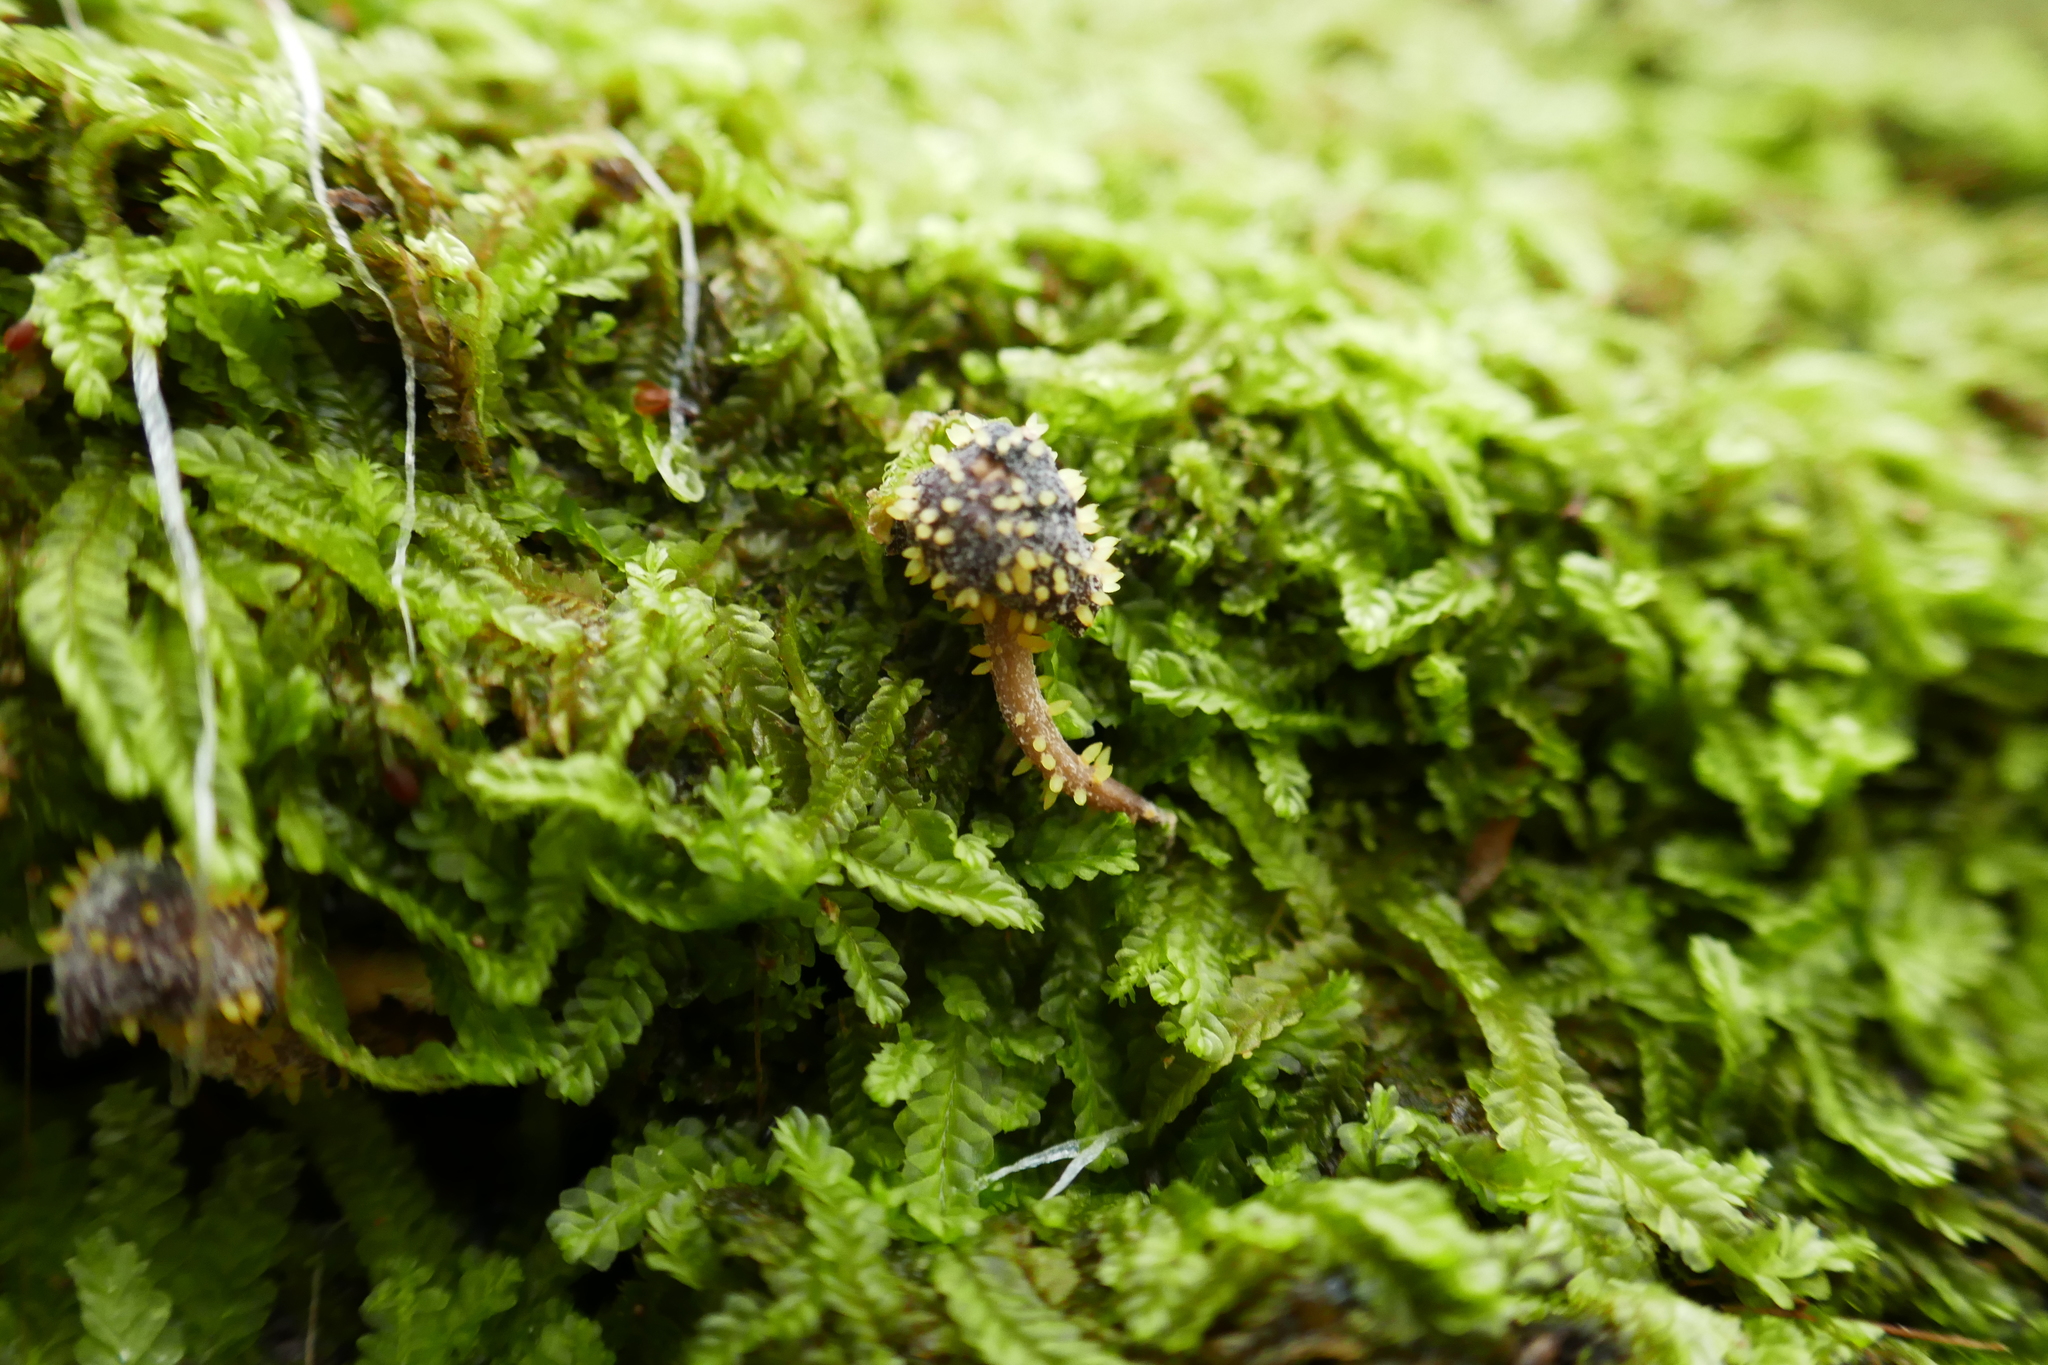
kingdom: Fungi
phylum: Ascomycota
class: Sordariomycetes
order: Hypocreales
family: Clavicipitaceae
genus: Neobarya
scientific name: Neobarya agaricicola
